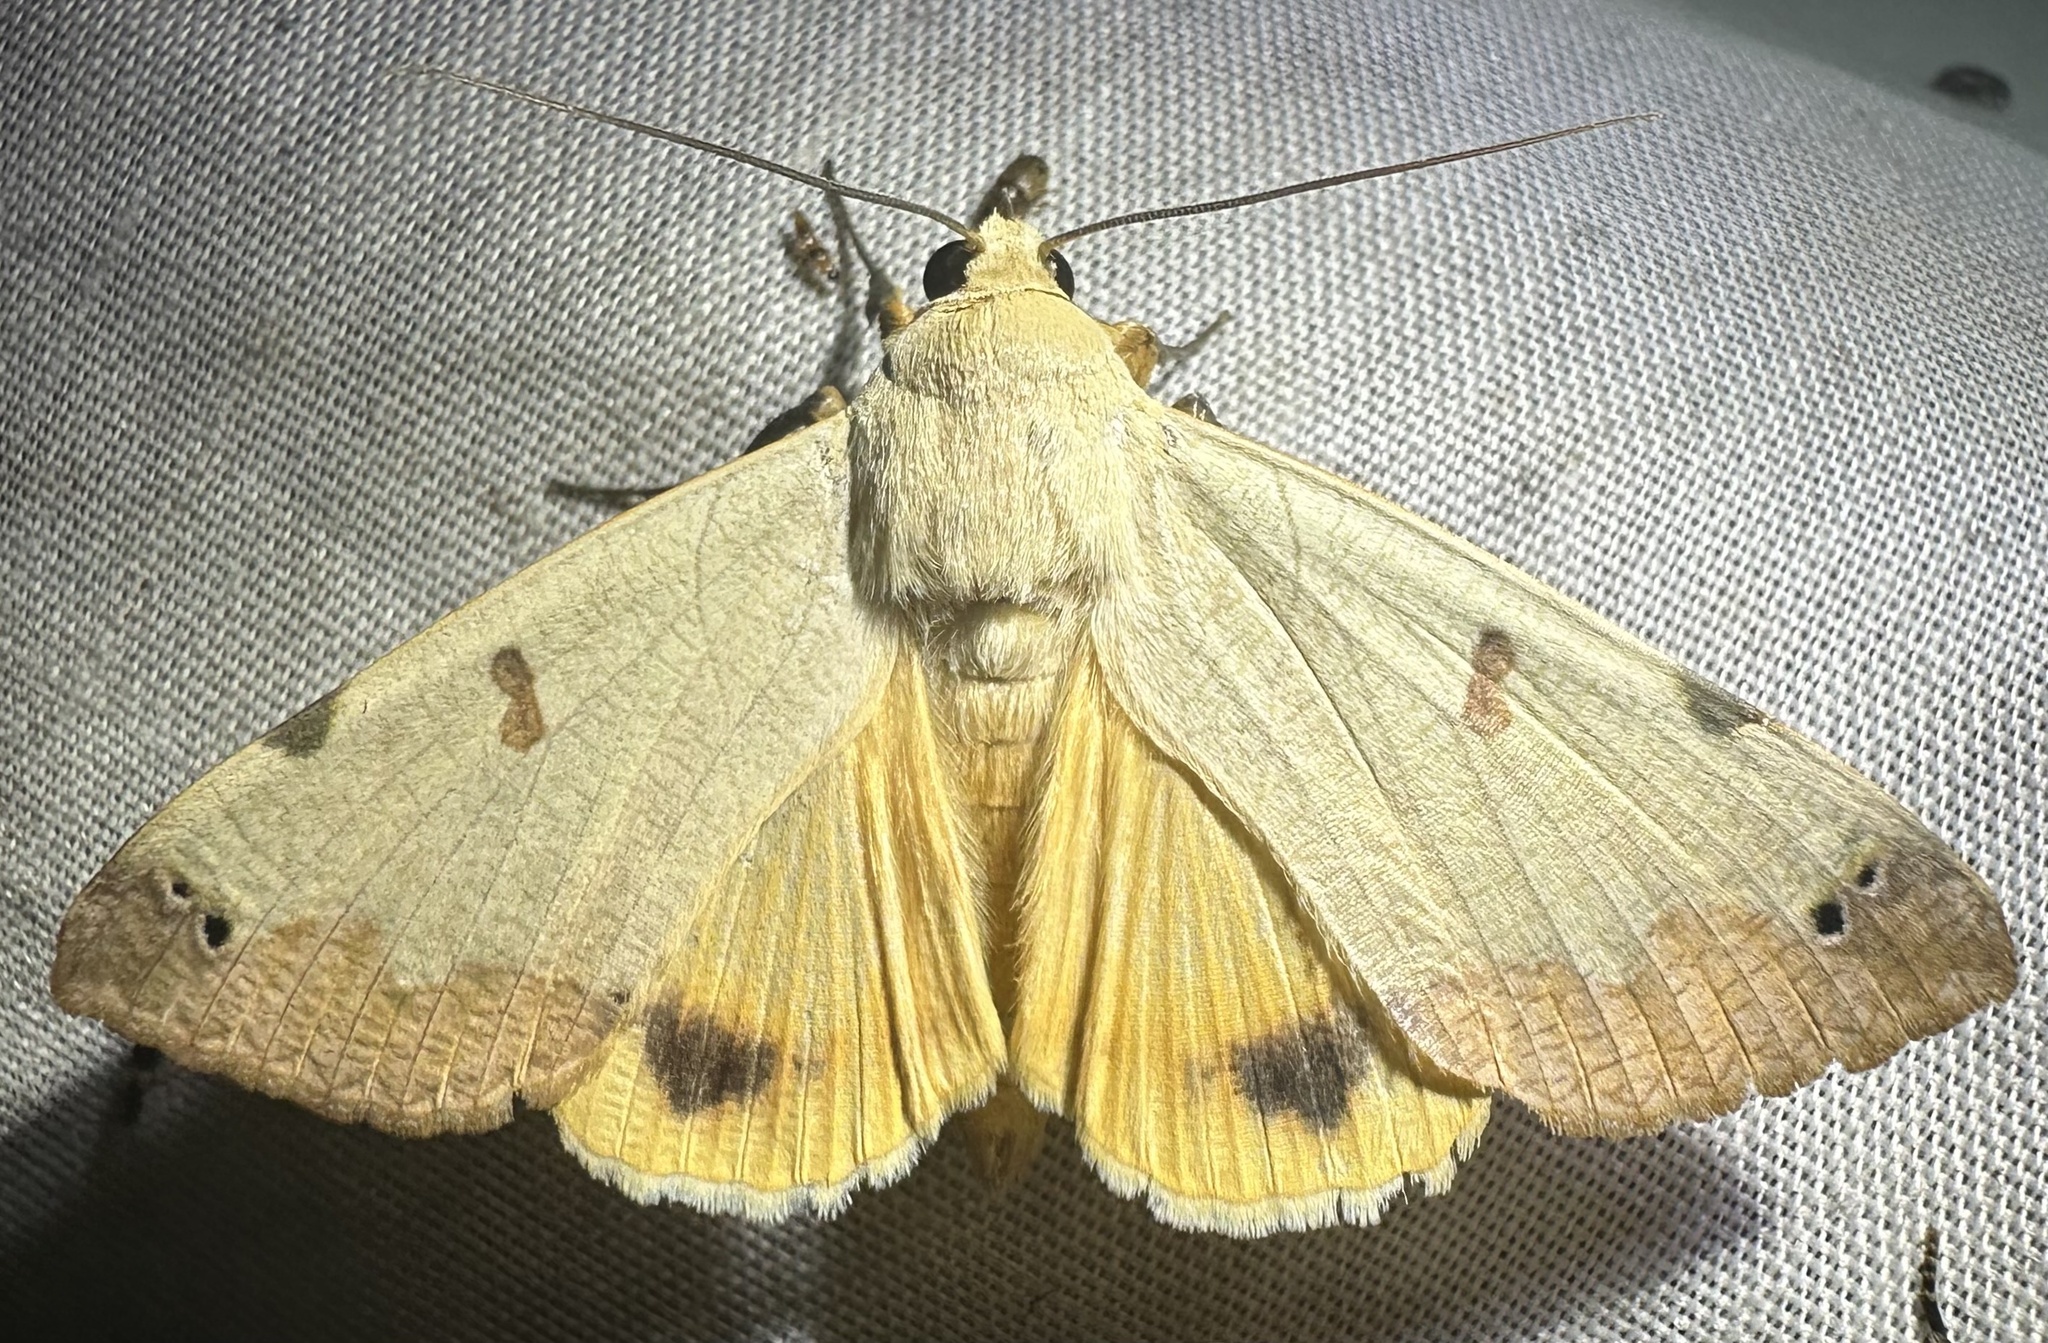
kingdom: Animalia
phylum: Arthropoda
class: Insecta
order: Lepidoptera
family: Erebidae
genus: Ophiusa
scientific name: Ophiusa tirhaca
